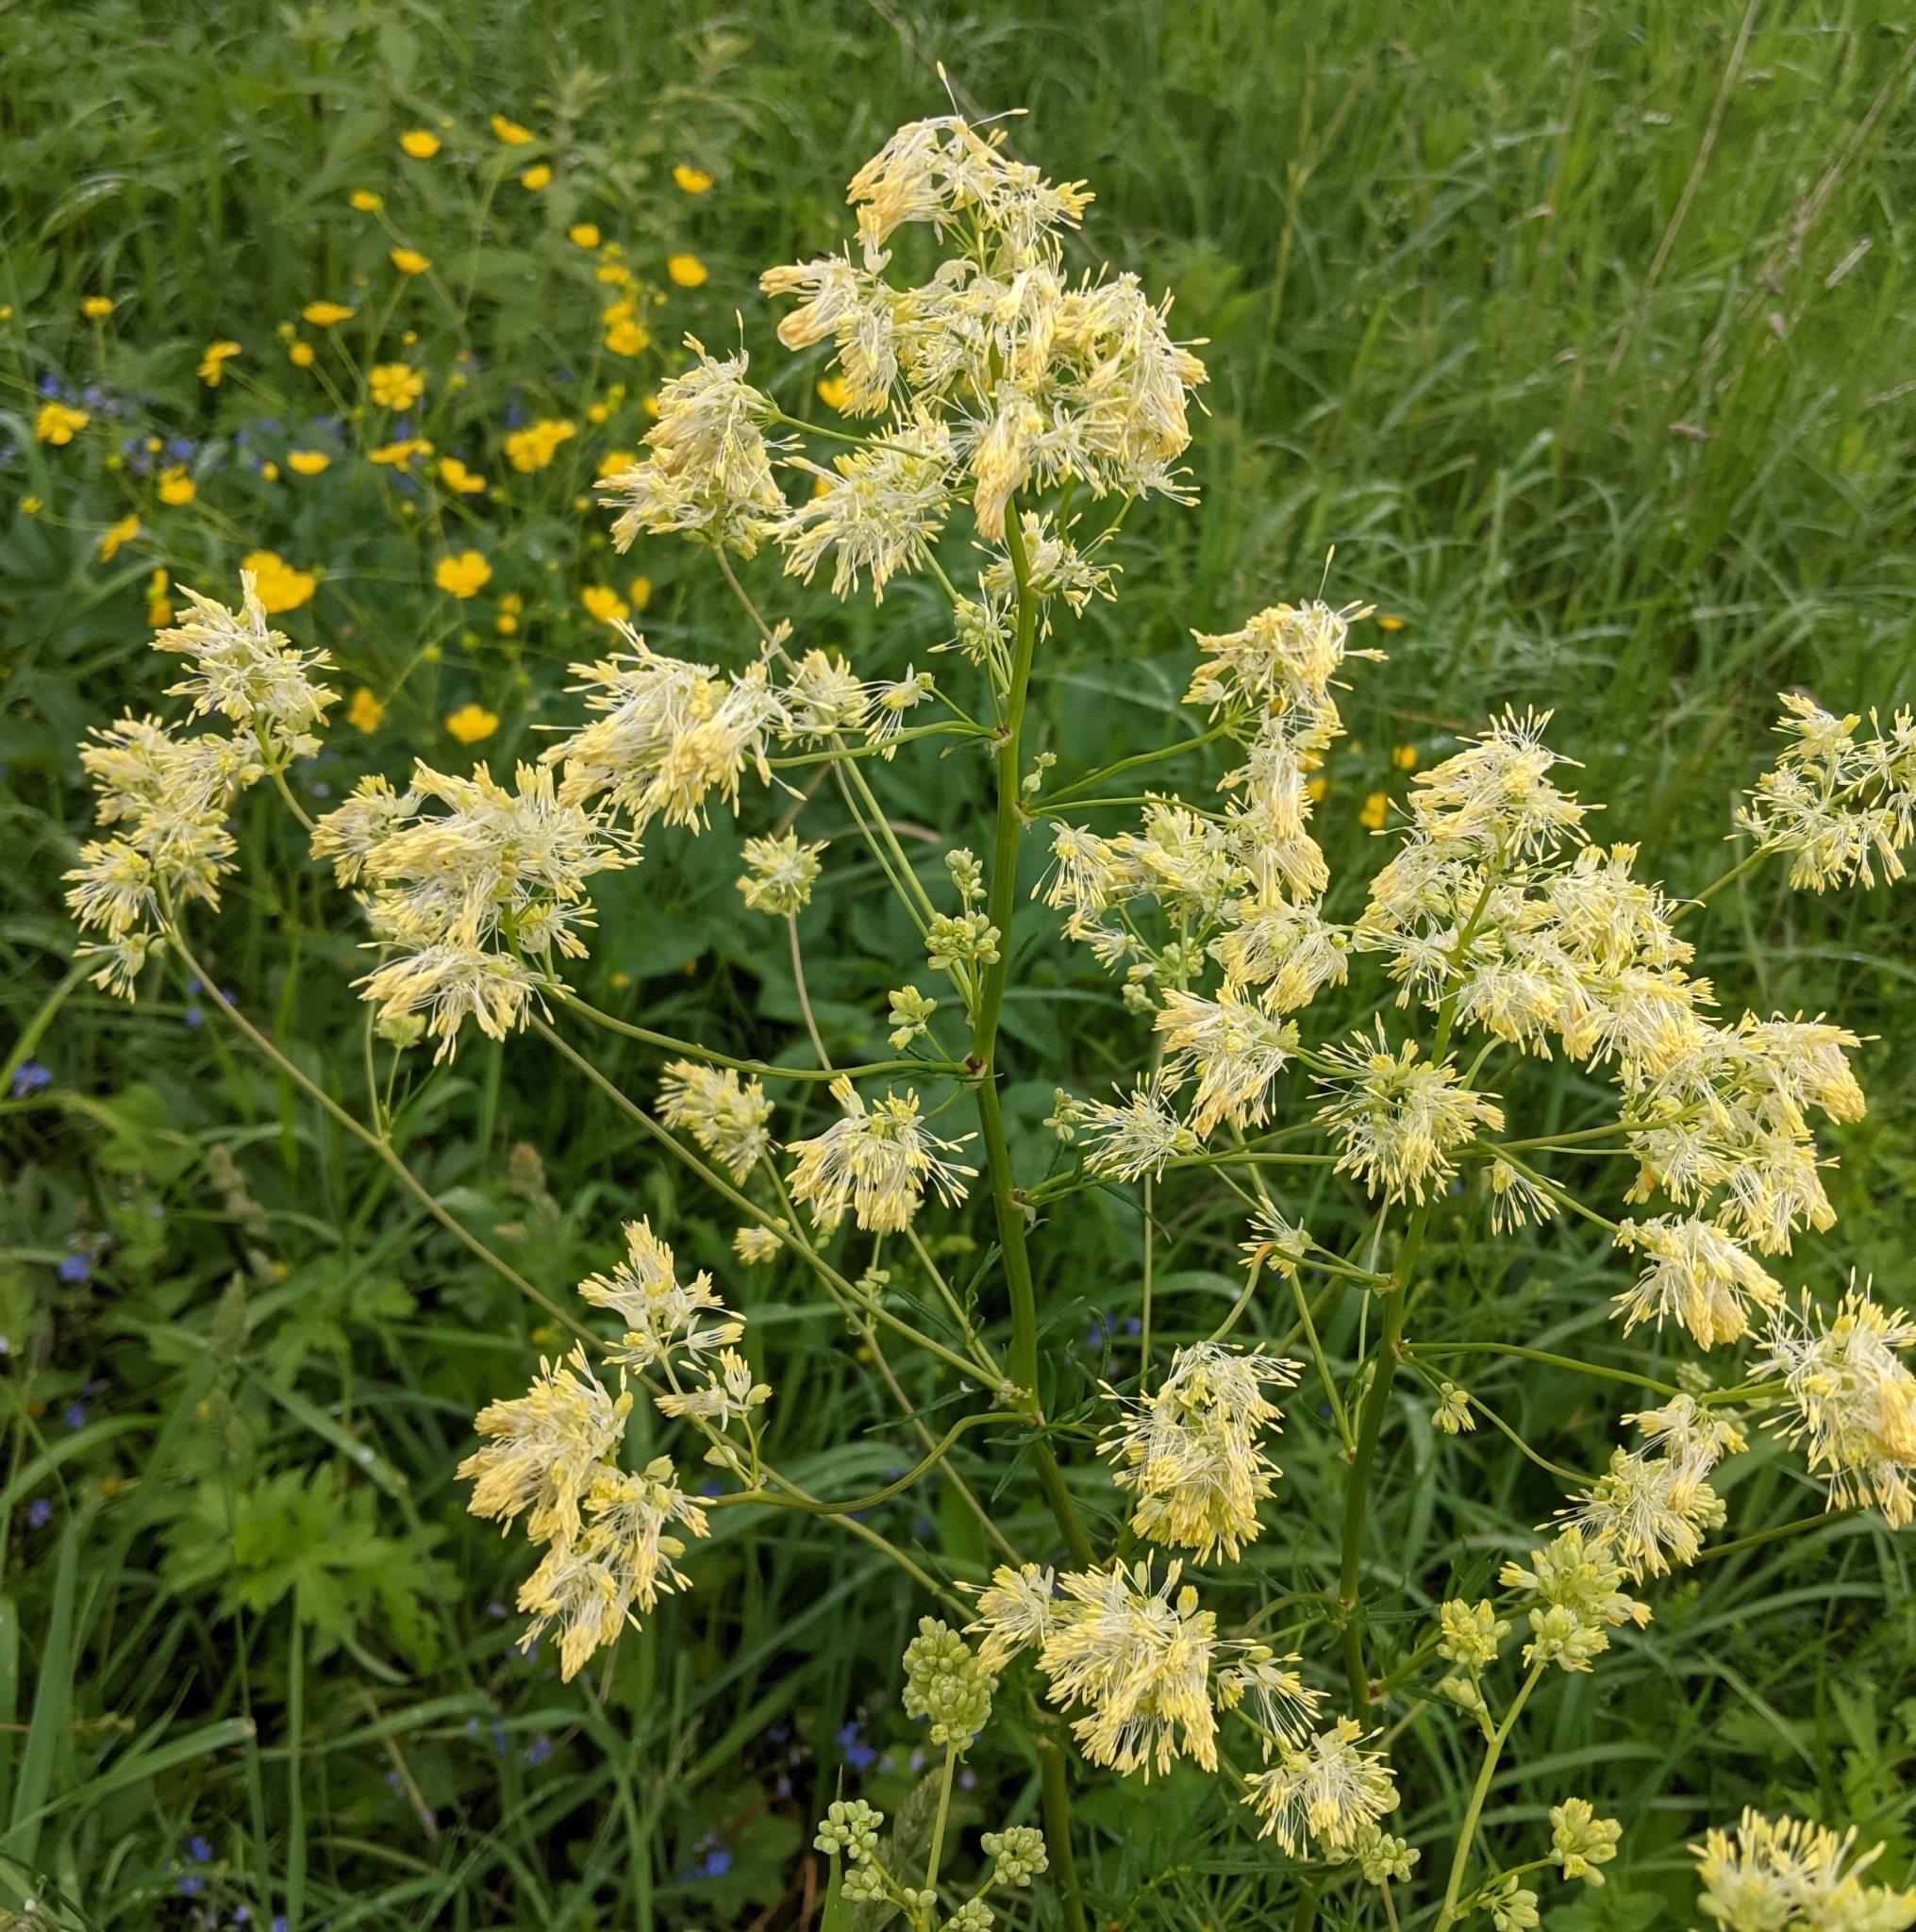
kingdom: Plantae
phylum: Tracheophyta
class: Magnoliopsida
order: Ranunculales
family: Ranunculaceae
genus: Thalictrum
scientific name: Thalictrum lucidum
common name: Shining meadow-rue
